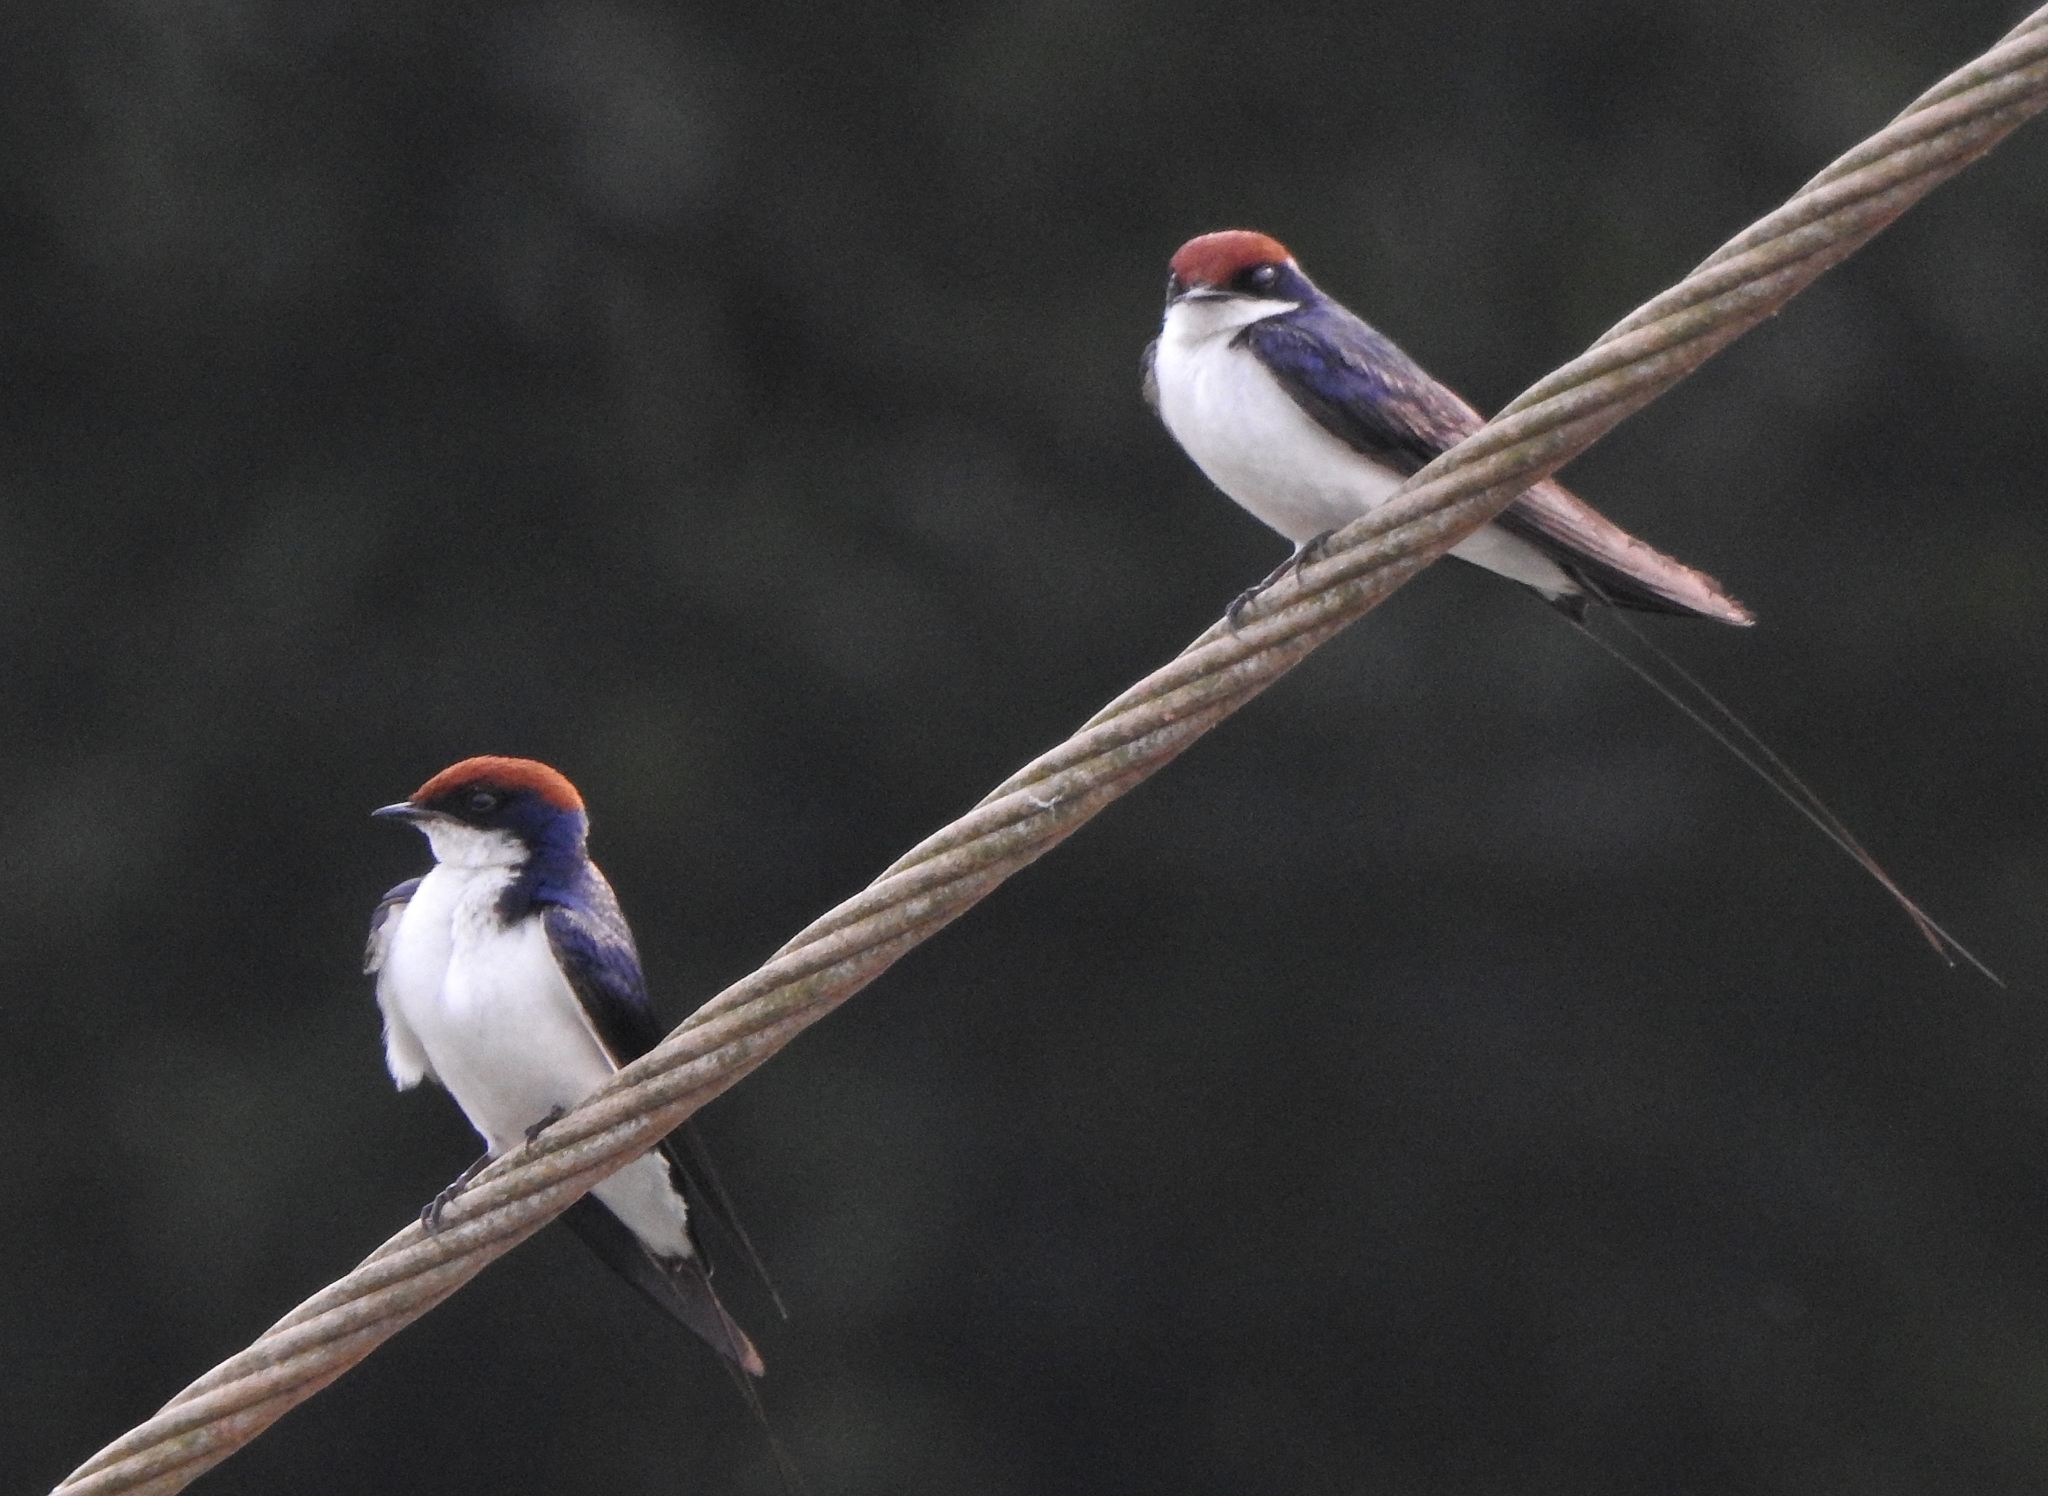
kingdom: Animalia
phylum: Chordata
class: Aves
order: Passeriformes
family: Hirundinidae
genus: Hirundo
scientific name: Hirundo smithii
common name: Wire-tailed swallow
